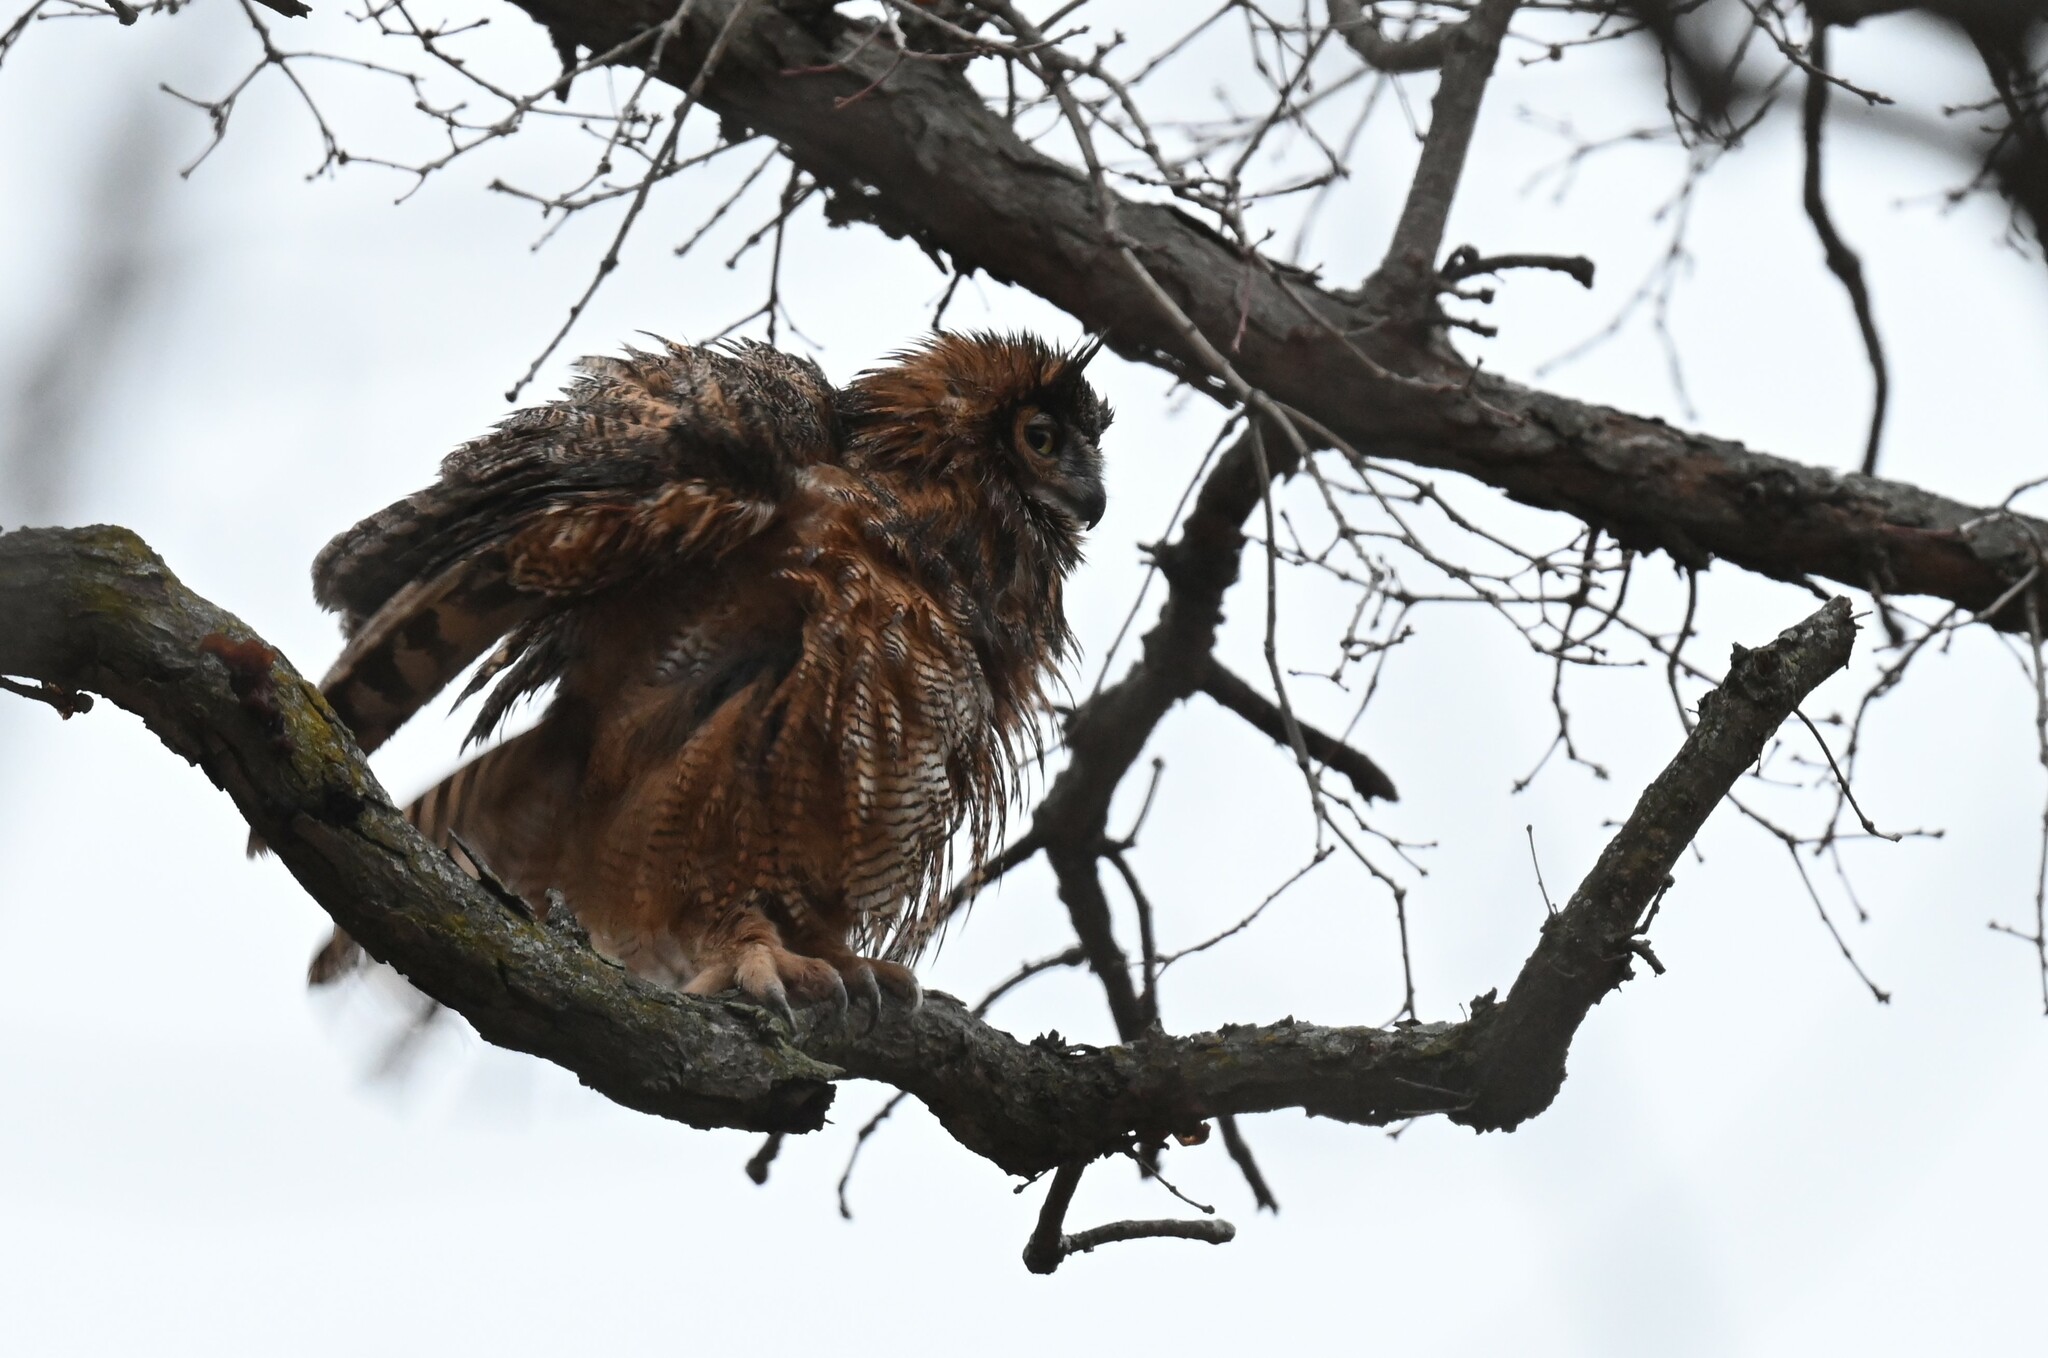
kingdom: Animalia
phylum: Chordata
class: Aves
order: Strigiformes
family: Strigidae
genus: Bubo
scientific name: Bubo virginianus
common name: Great horned owl
